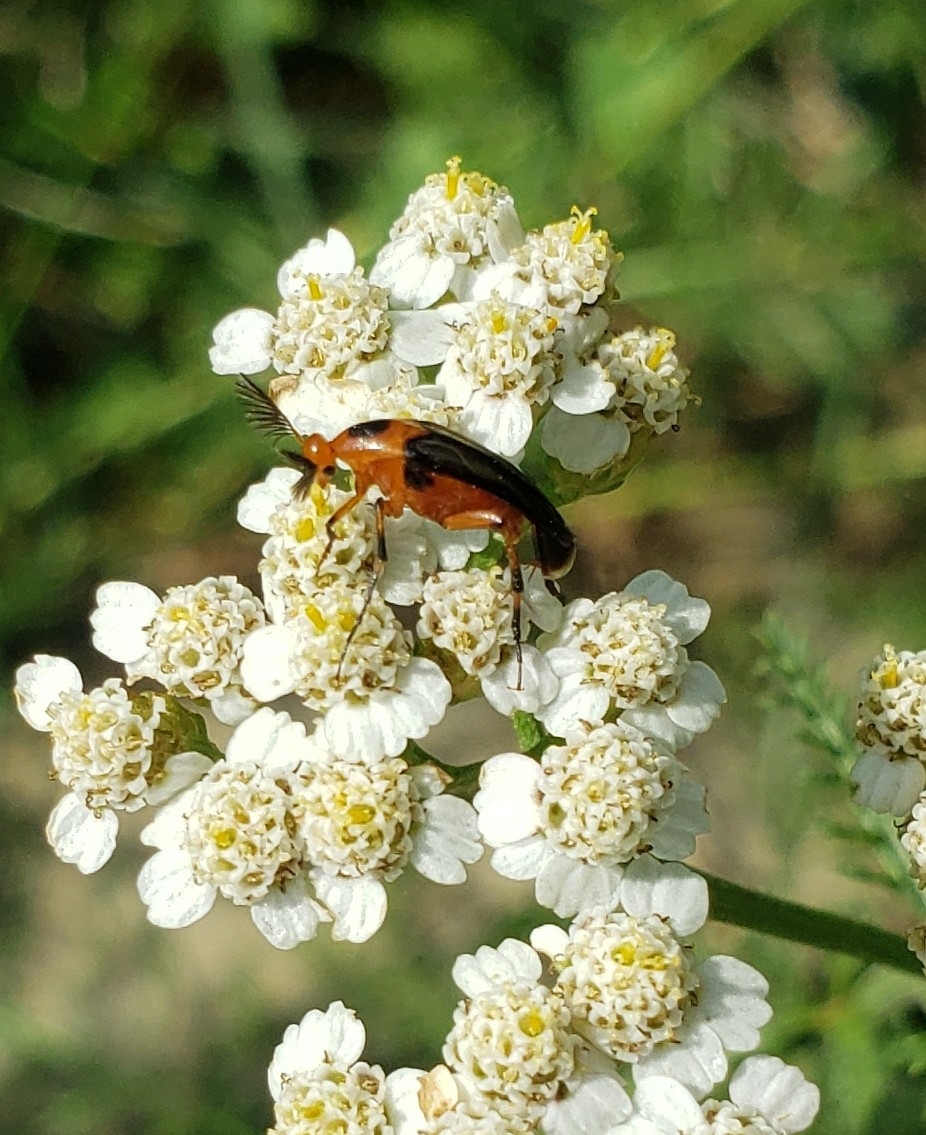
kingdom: Animalia
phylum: Arthropoda
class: Insecta
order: Coleoptera
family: Ripiphoridae
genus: Macrosiagon
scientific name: Macrosiagon limbatum
